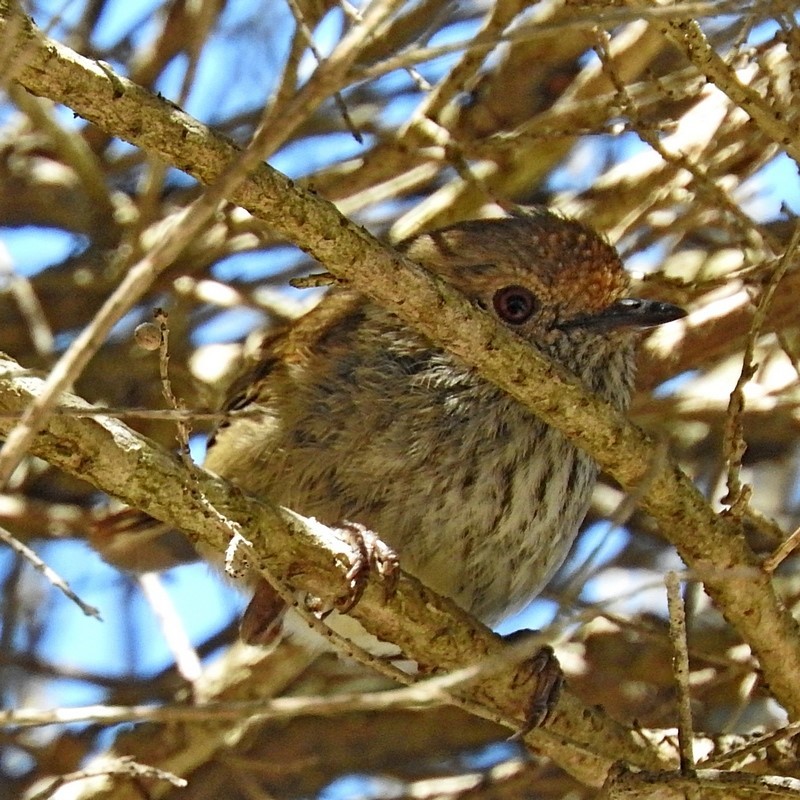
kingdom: Animalia
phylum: Chordata
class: Aves
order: Passeriformes
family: Acanthizidae
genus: Acanthiza
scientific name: Acanthiza pusilla
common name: Brown thornbill
